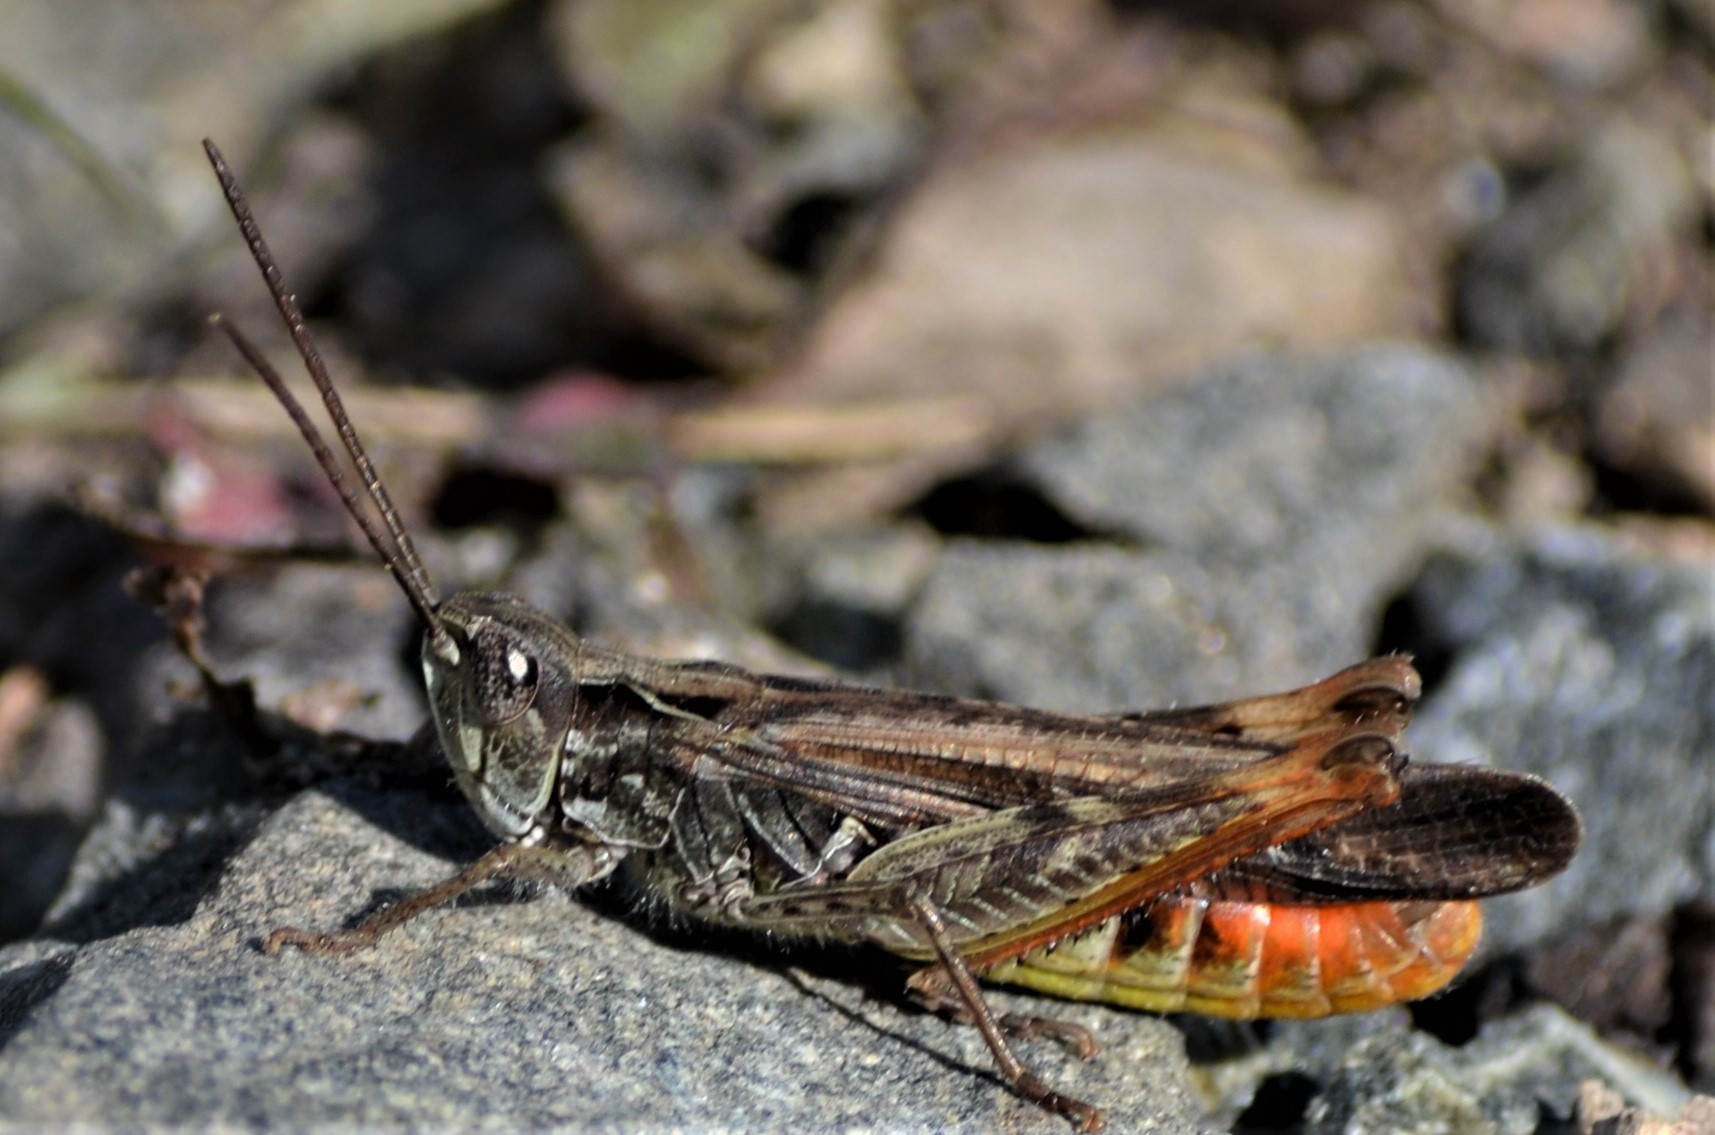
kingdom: Animalia
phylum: Arthropoda
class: Insecta
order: Orthoptera
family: Acrididae
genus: Chorthippus
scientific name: Chorthippus brunneus
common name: Field grasshopper
